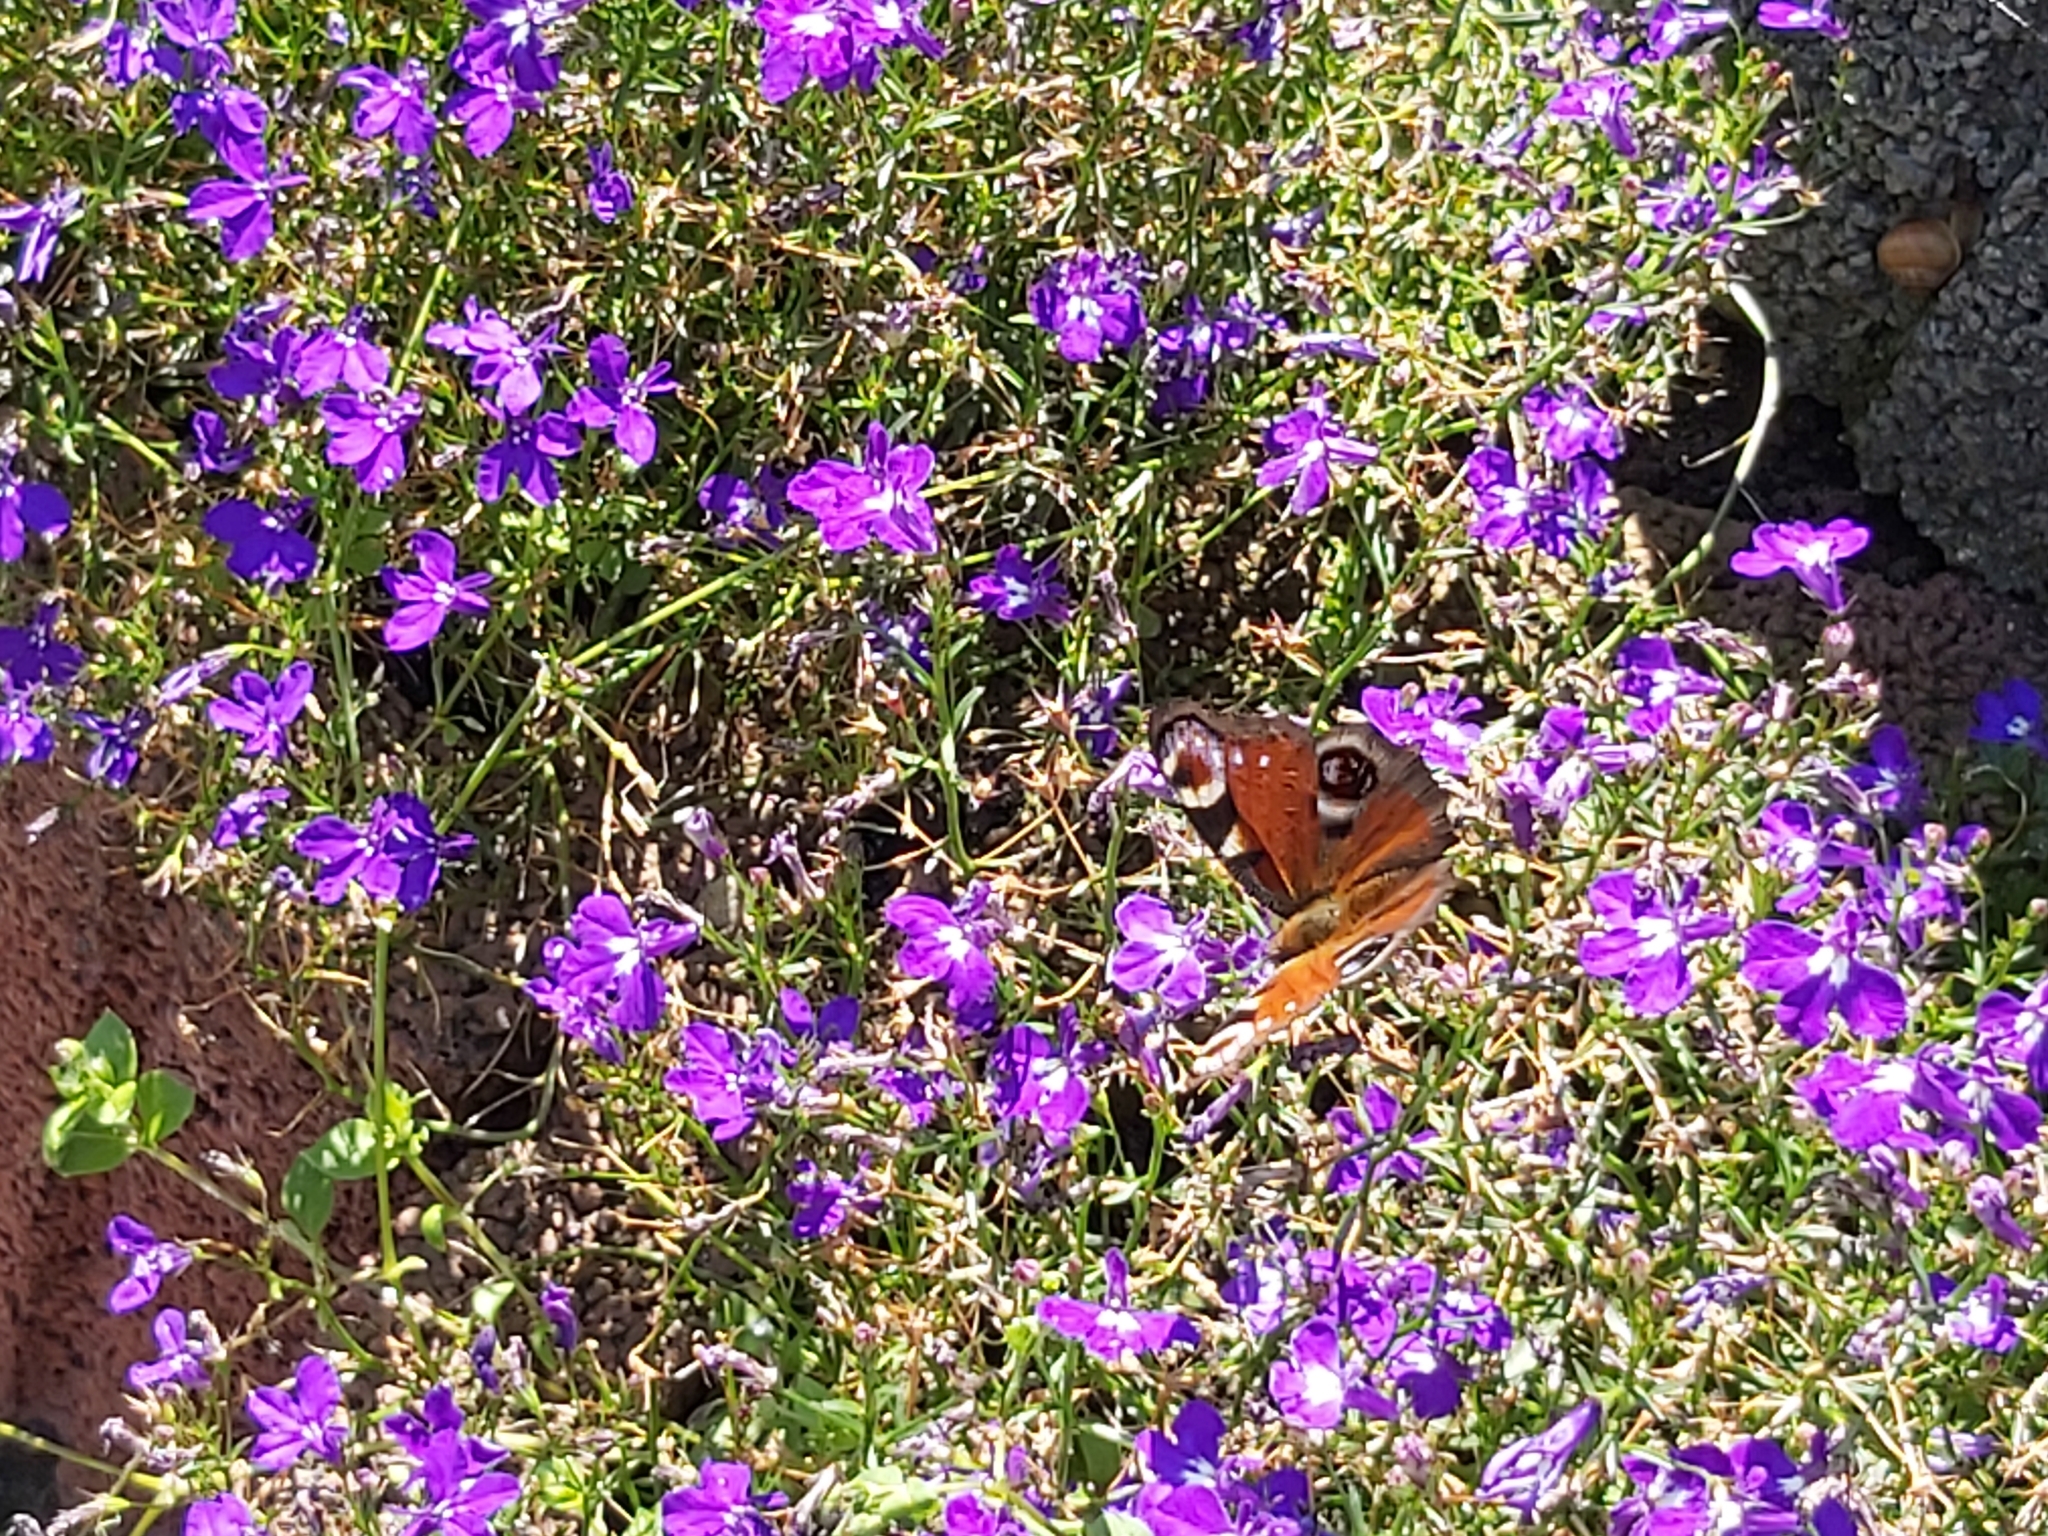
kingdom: Animalia
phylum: Arthropoda
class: Insecta
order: Lepidoptera
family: Nymphalidae
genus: Aglais
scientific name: Aglais io
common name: Peacock
